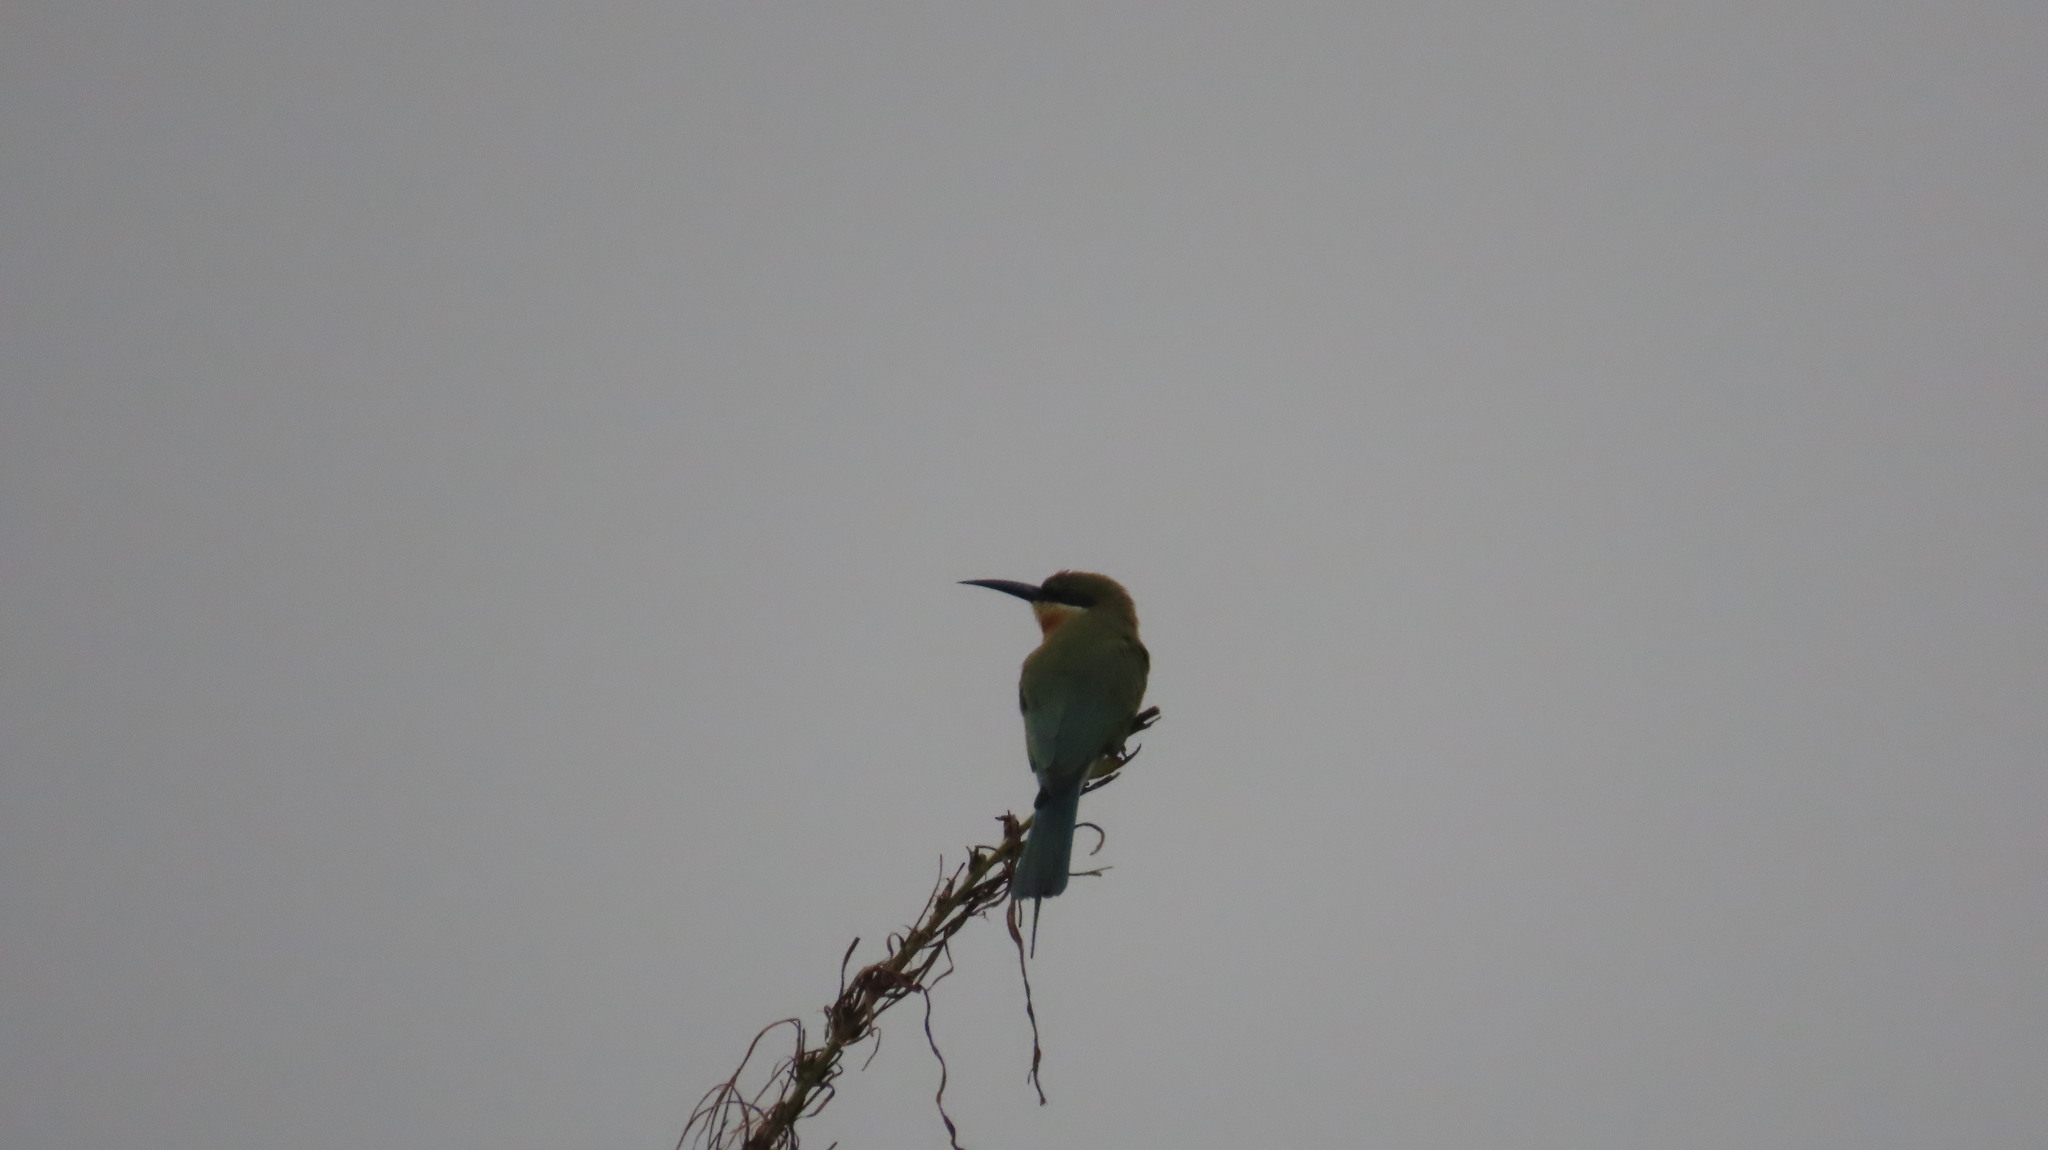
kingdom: Animalia
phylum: Chordata
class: Aves
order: Coraciiformes
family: Meropidae
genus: Merops
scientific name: Merops philippinus
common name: Blue-tailed bee-eater
